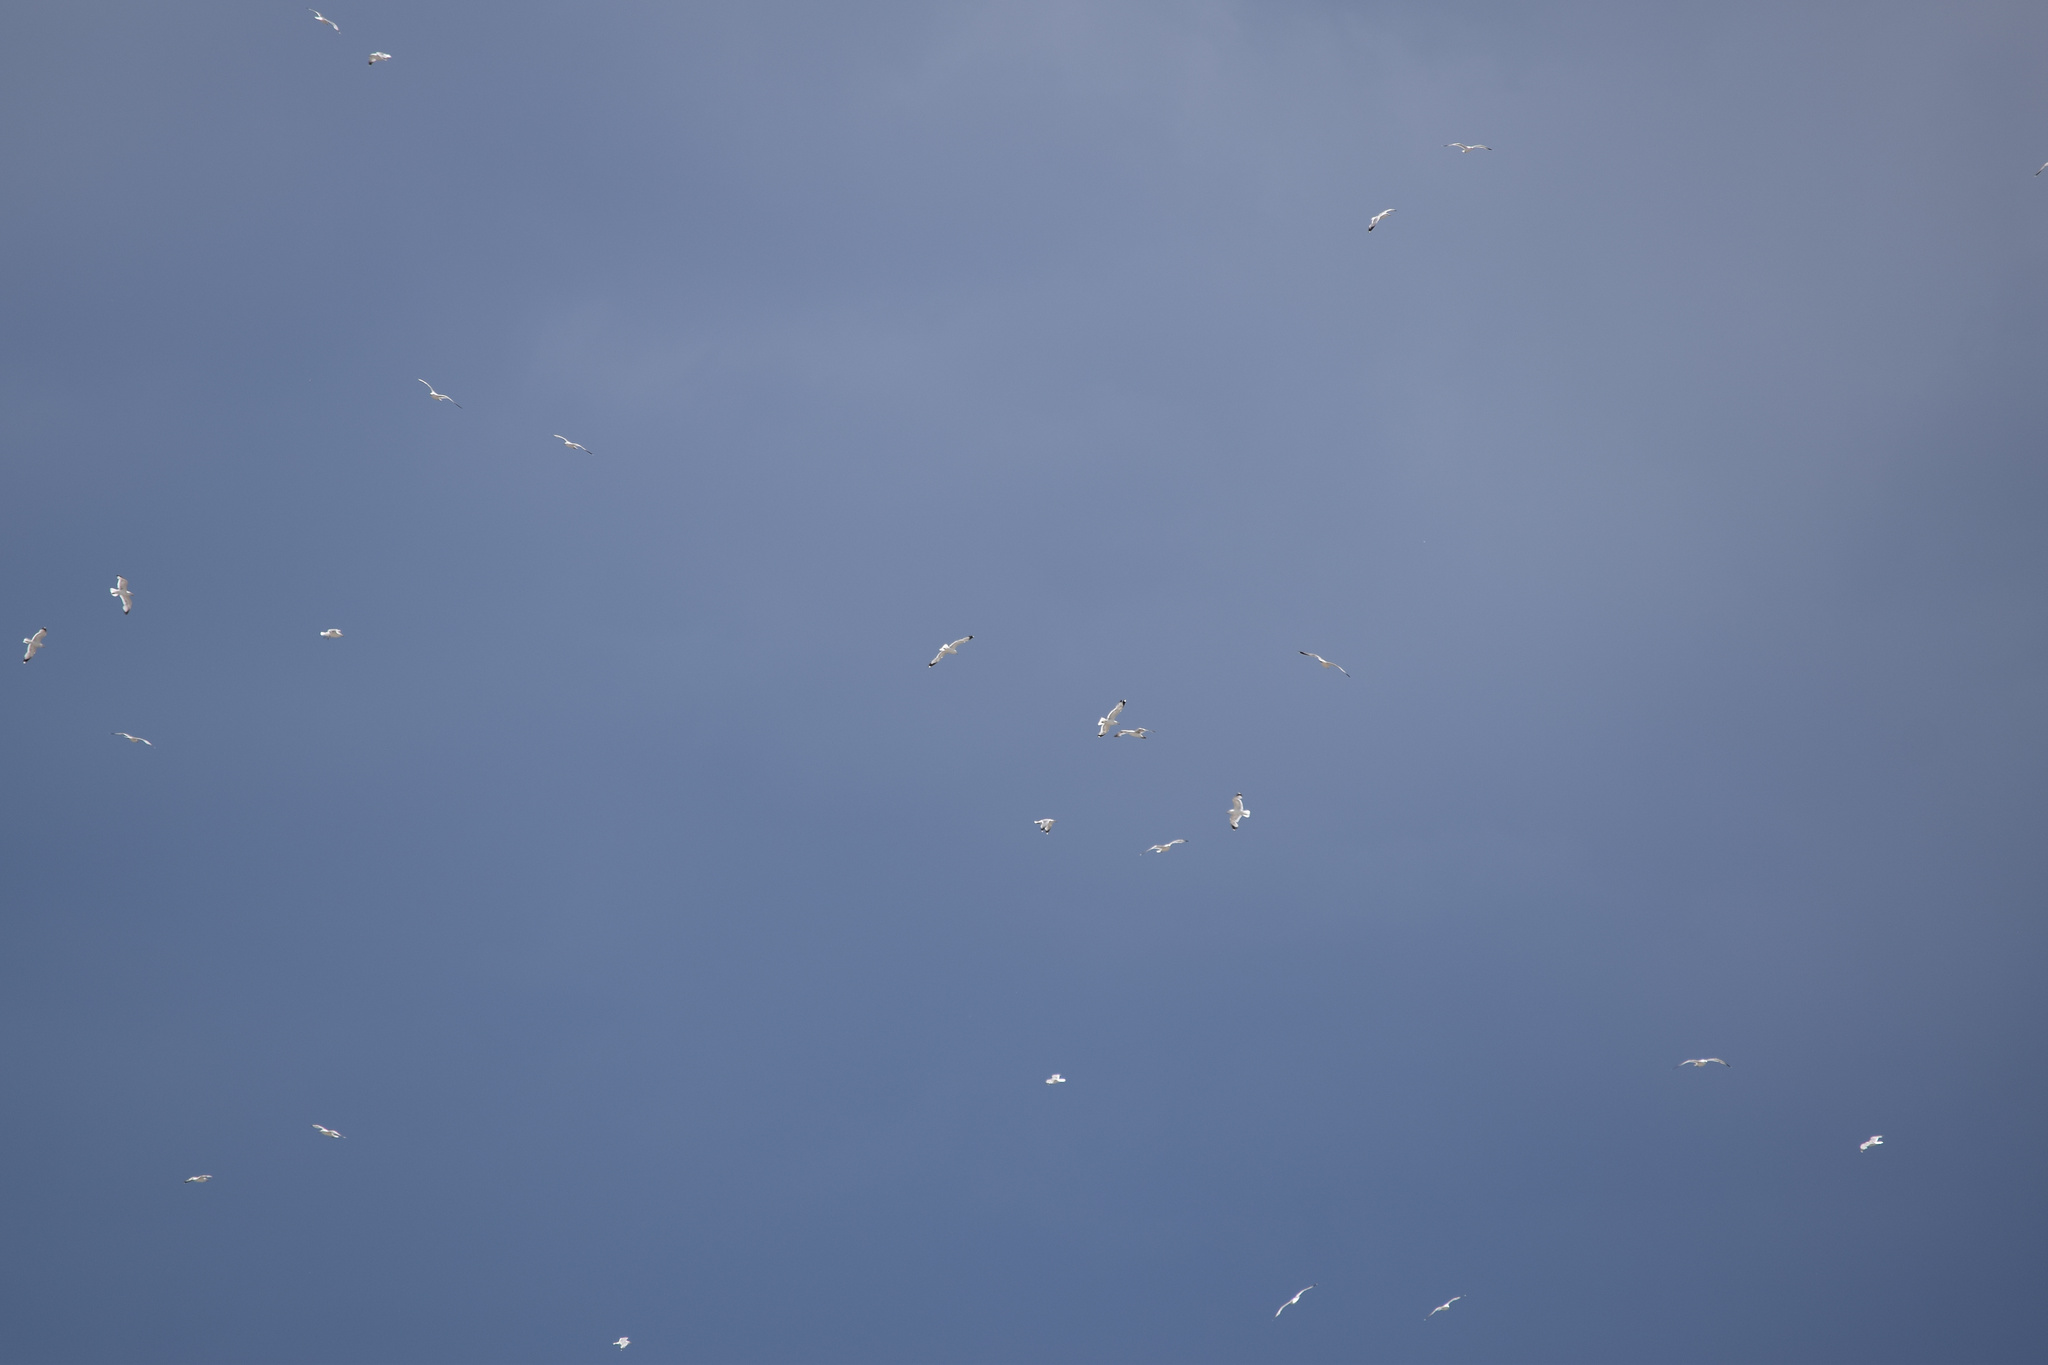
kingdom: Animalia
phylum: Chordata
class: Aves
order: Charadriiformes
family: Laridae
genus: Larus
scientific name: Larus californicus
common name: California gull
